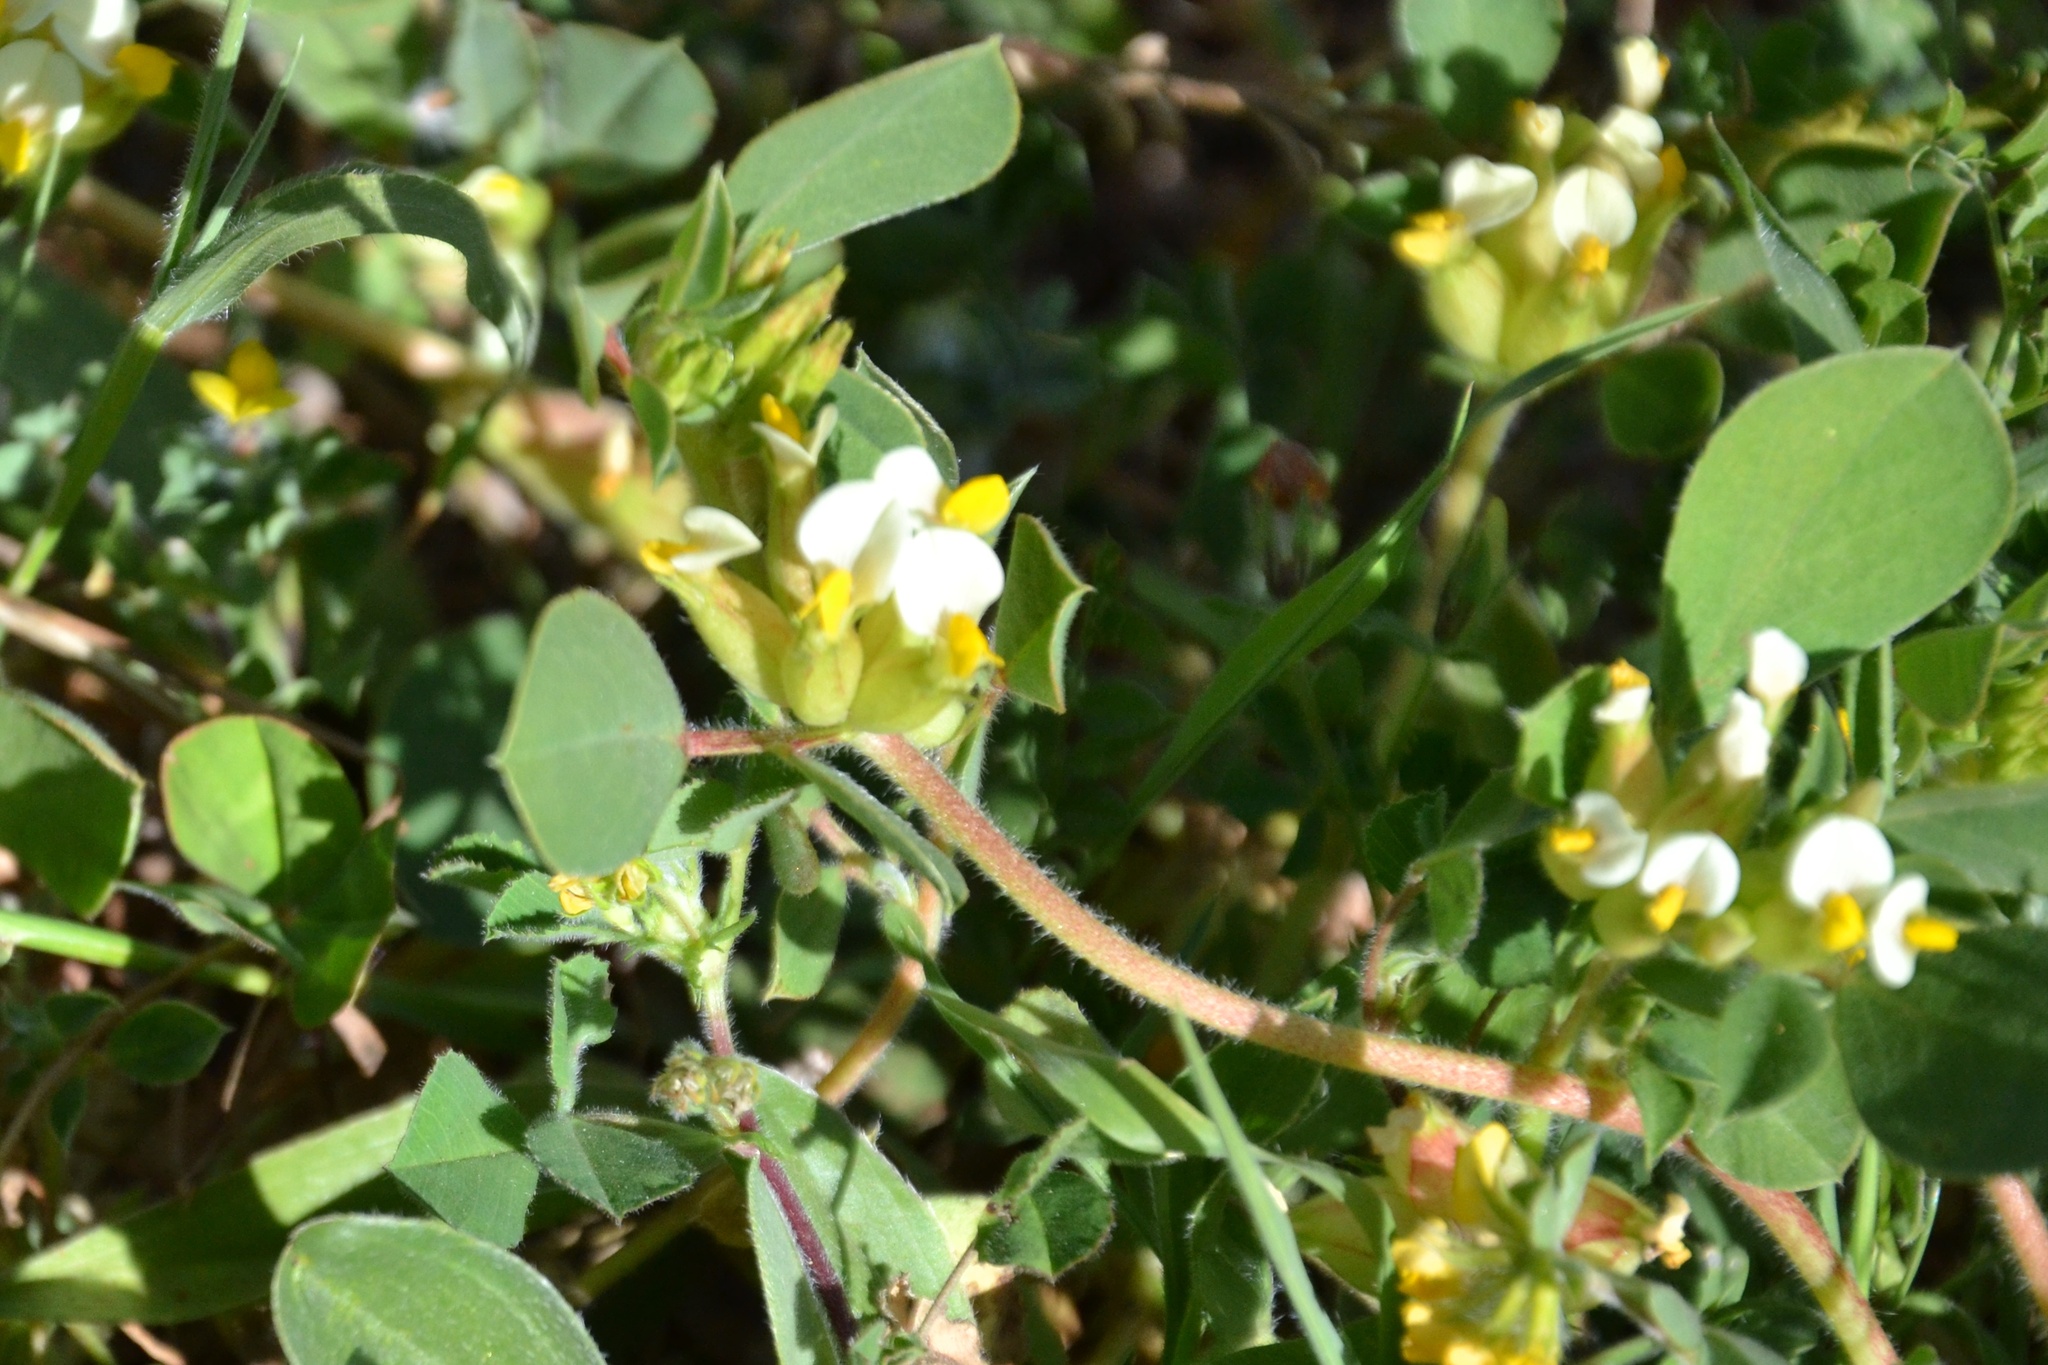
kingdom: Plantae
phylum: Tracheophyta
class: Magnoliopsida
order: Fabales
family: Fabaceae
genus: Tripodion
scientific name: Tripodion tetraphyllum
